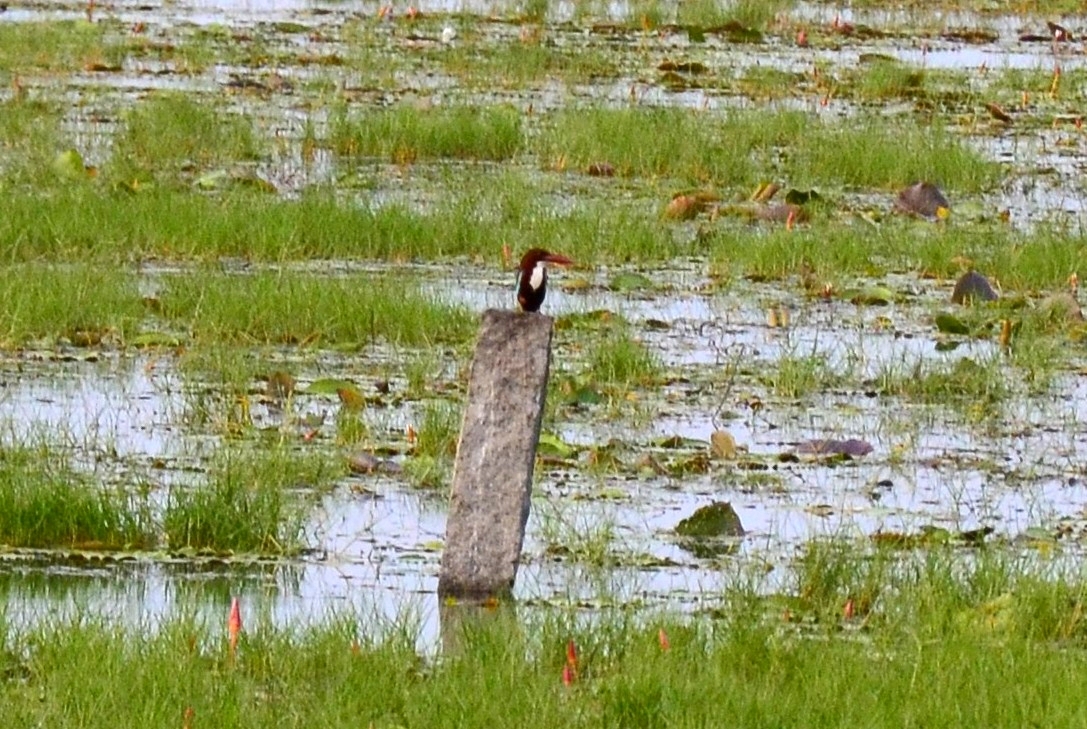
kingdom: Animalia
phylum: Chordata
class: Aves
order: Coraciiformes
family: Alcedinidae
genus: Halcyon
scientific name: Halcyon smyrnensis
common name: White-throated kingfisher
